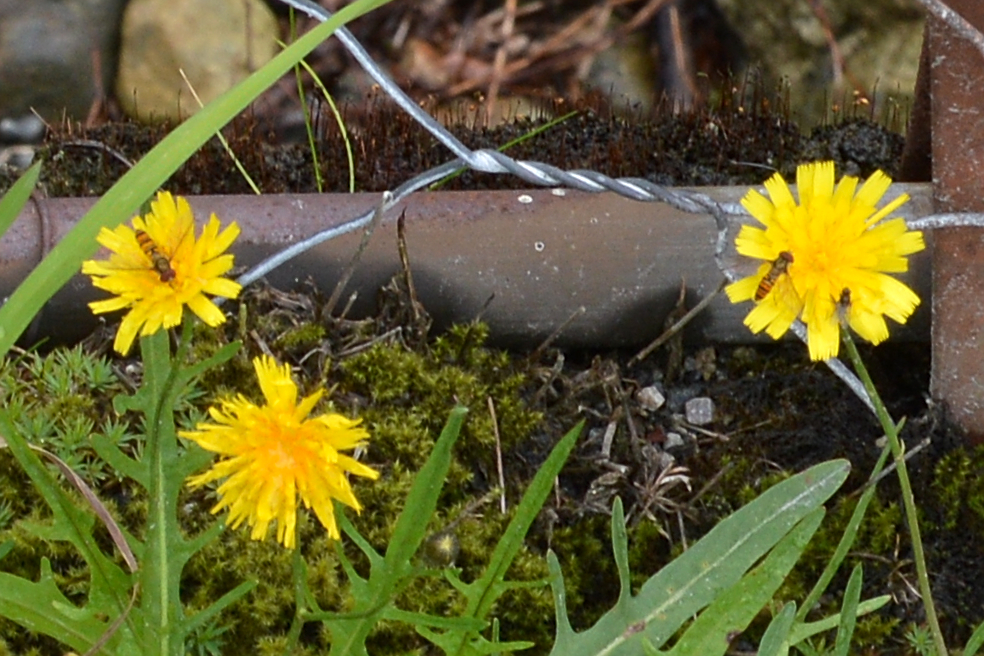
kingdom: Animalia
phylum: Arthropoda
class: Insecta
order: Diptera
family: Syrphidae
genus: Episyrphus
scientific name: Episyrphus balteatus
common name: Marmalade hoverfly
